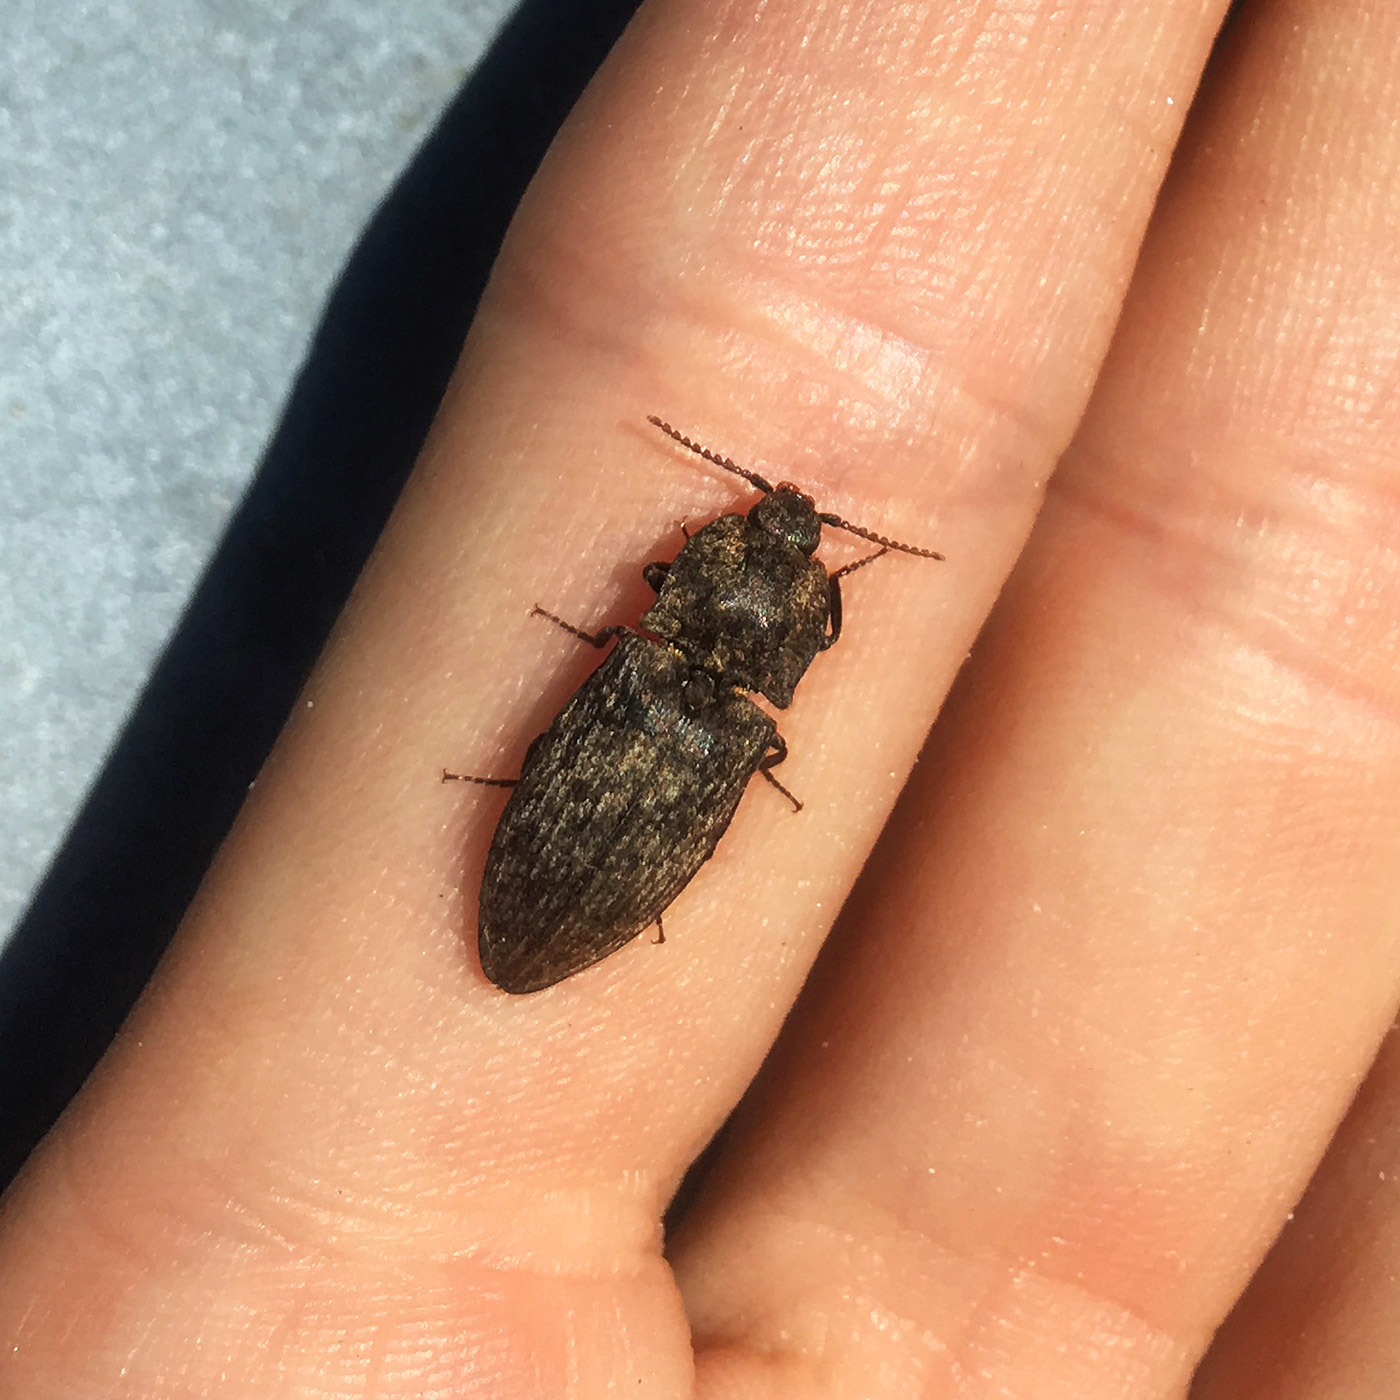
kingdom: Animalia
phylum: Arthropoda
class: Insecta
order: Coleoptera
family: Elateridae
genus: Agrypnus
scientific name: Agrypnus murinus
